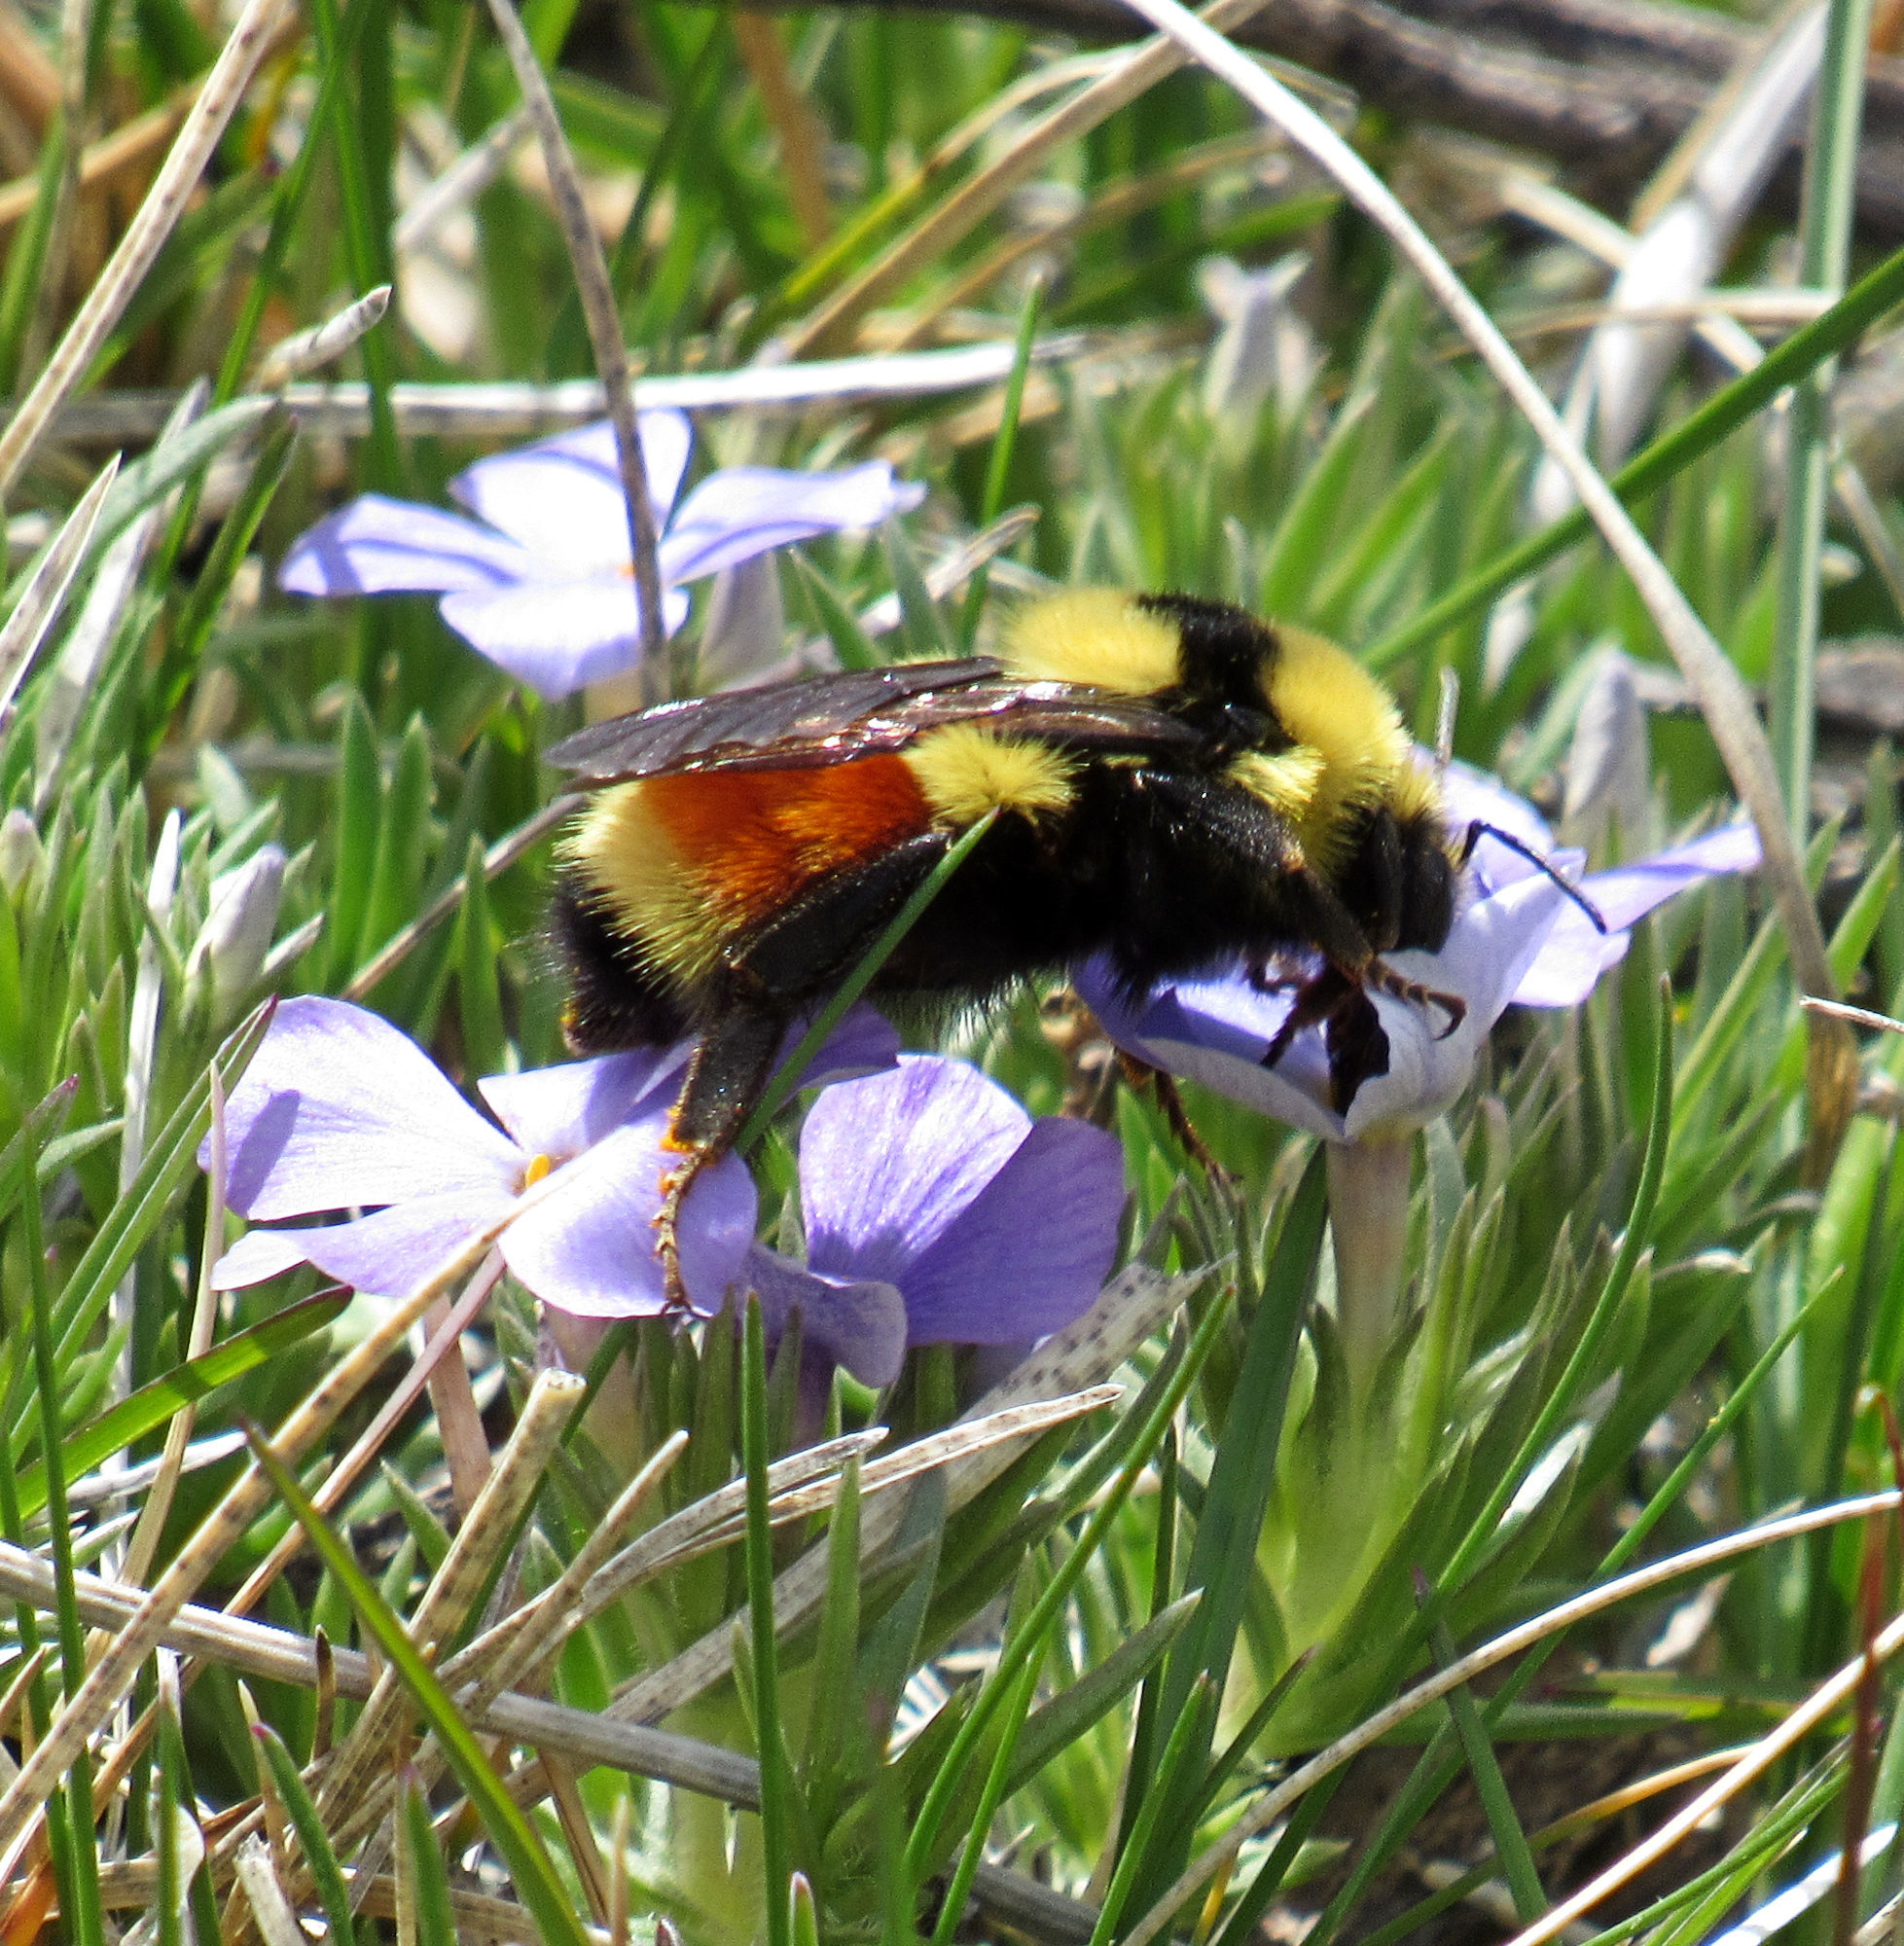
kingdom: Animalia
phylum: Arthropoda
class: Insecta
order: Hymenoptera
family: Apidae
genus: Bombus
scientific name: Bombus huntii
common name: Hunt bumble bee
